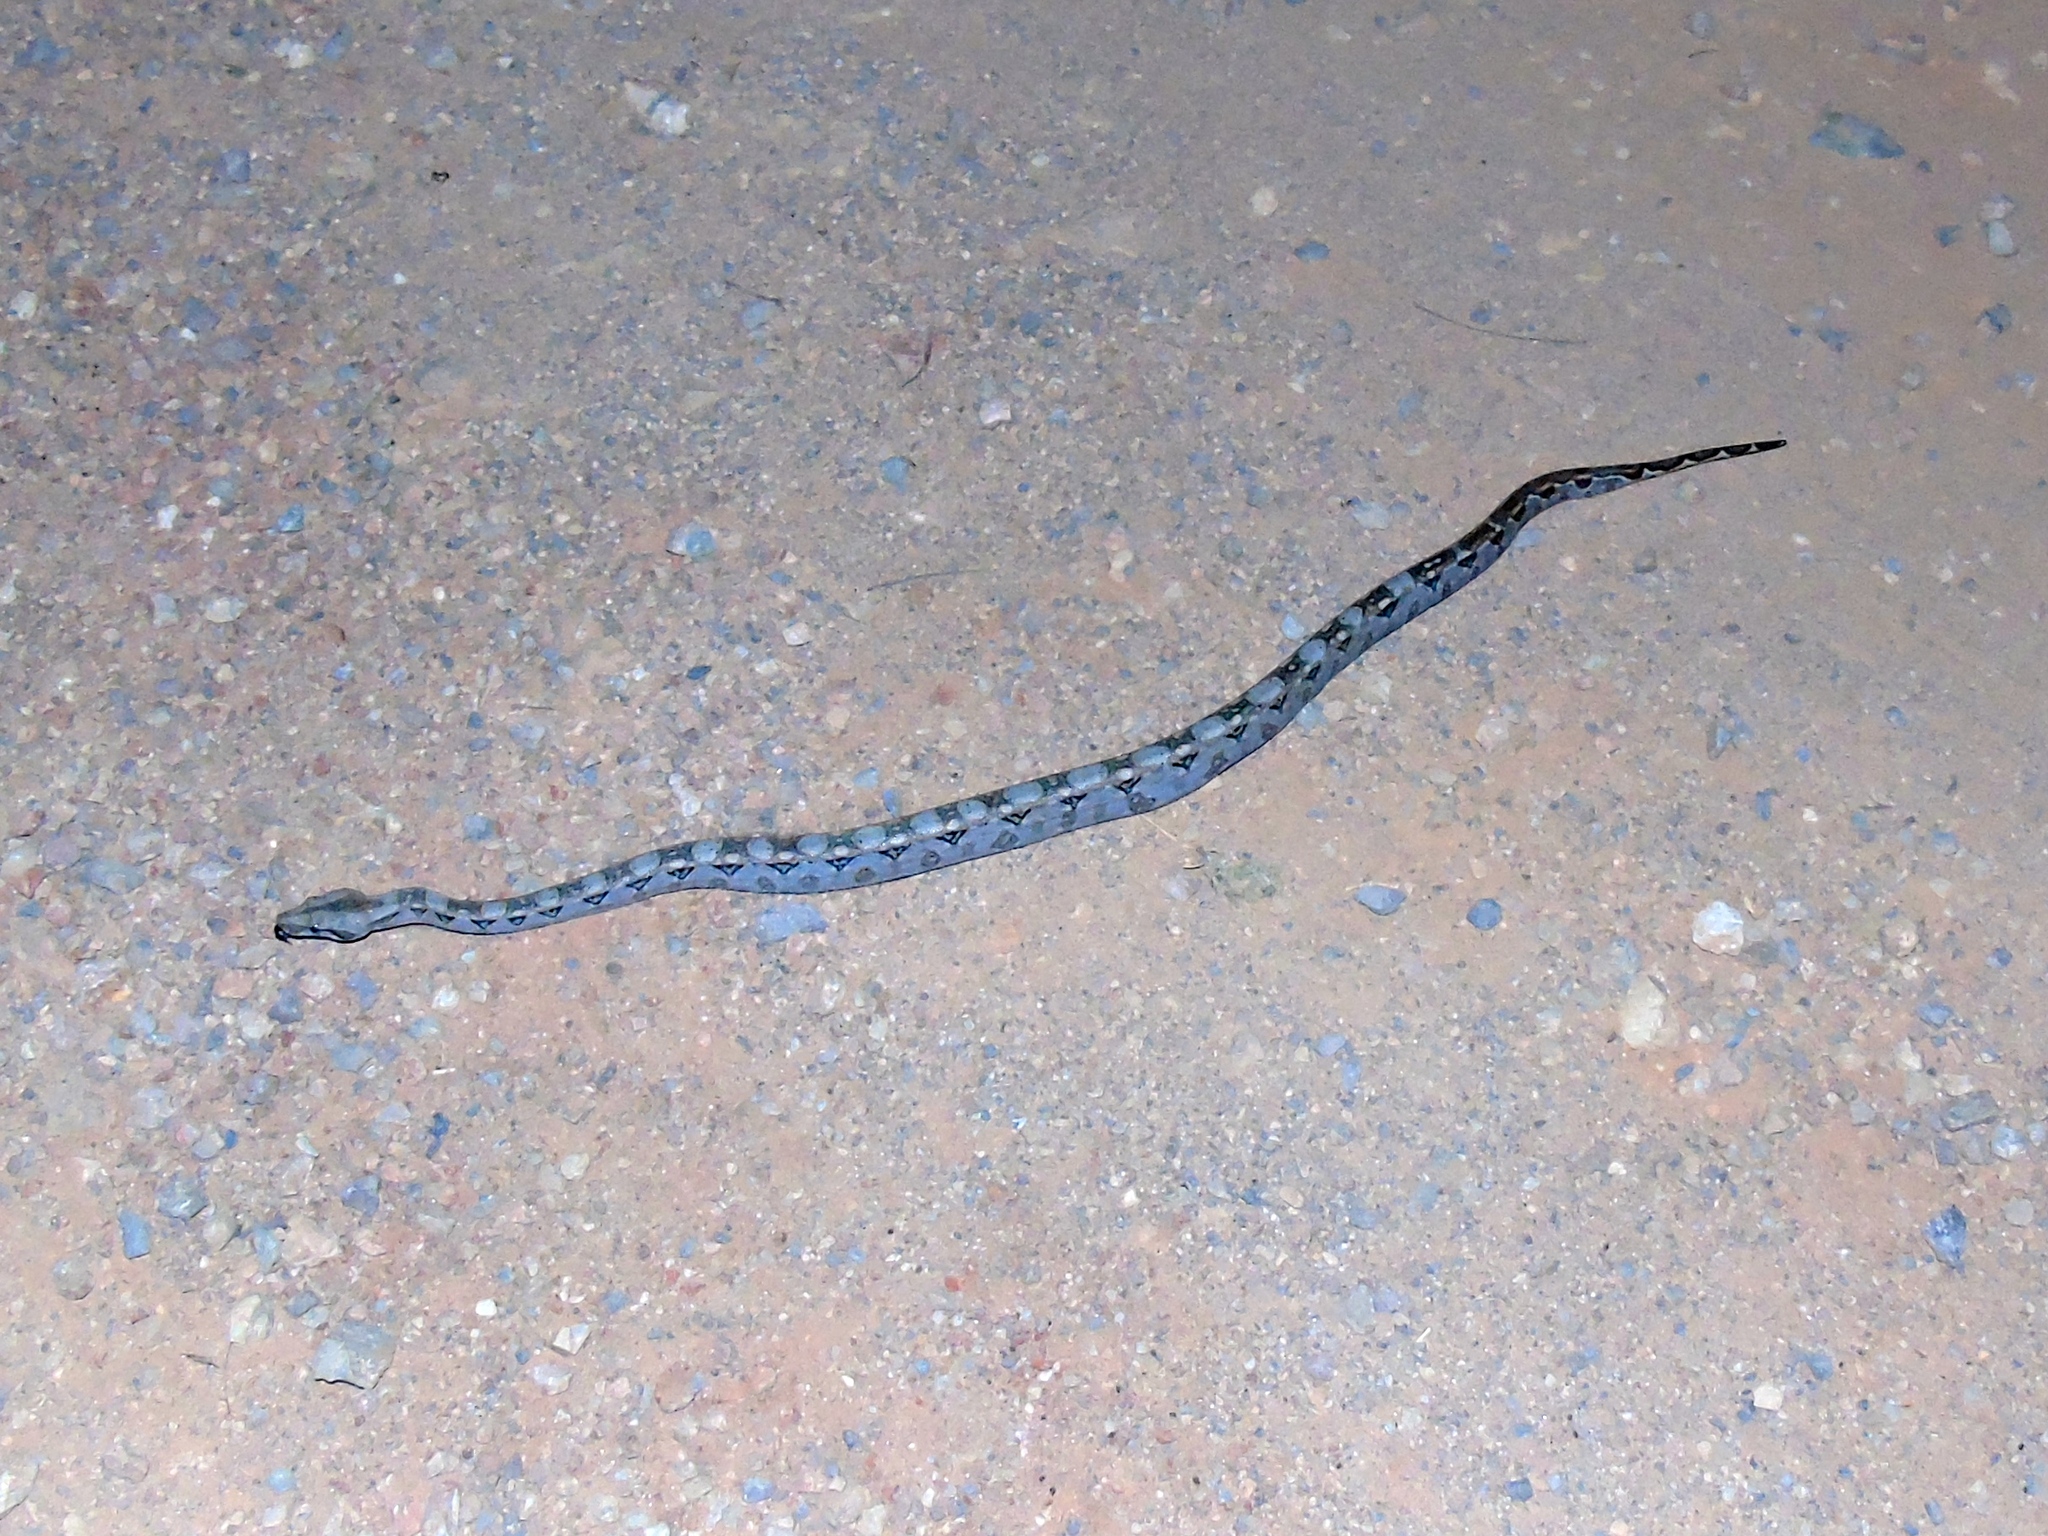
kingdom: Animalia
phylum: Chordata
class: Squamata
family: Boidae
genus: Boa
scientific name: Boa
